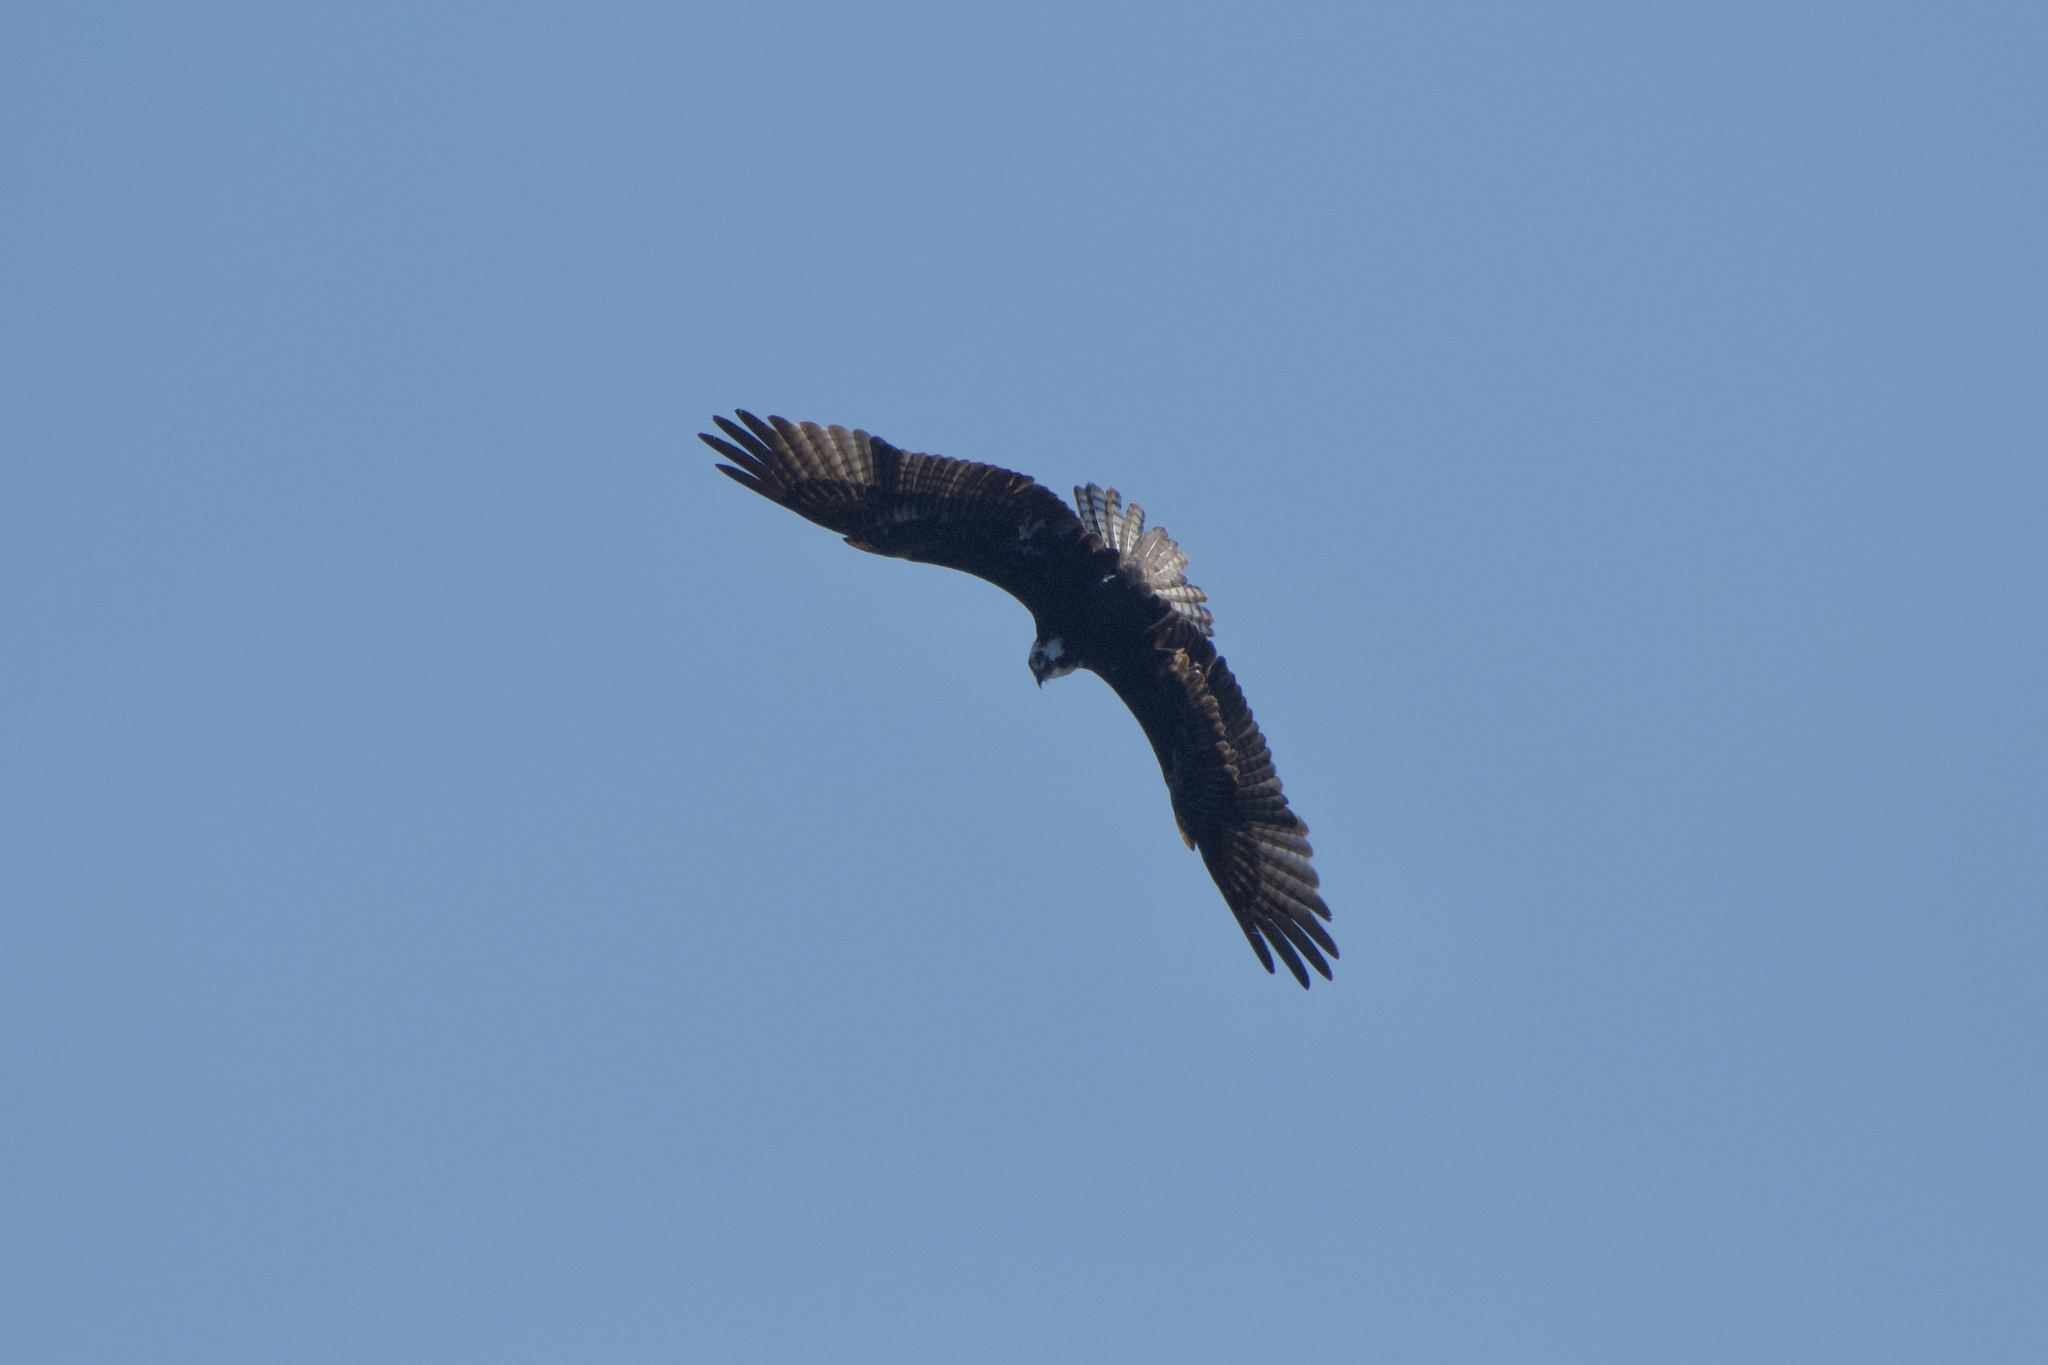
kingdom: Animalia
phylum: Chordata
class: Aves
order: Accipitriformes
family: Pandionidae
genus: Pandion
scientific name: Pandion haliaetus
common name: Osprey
